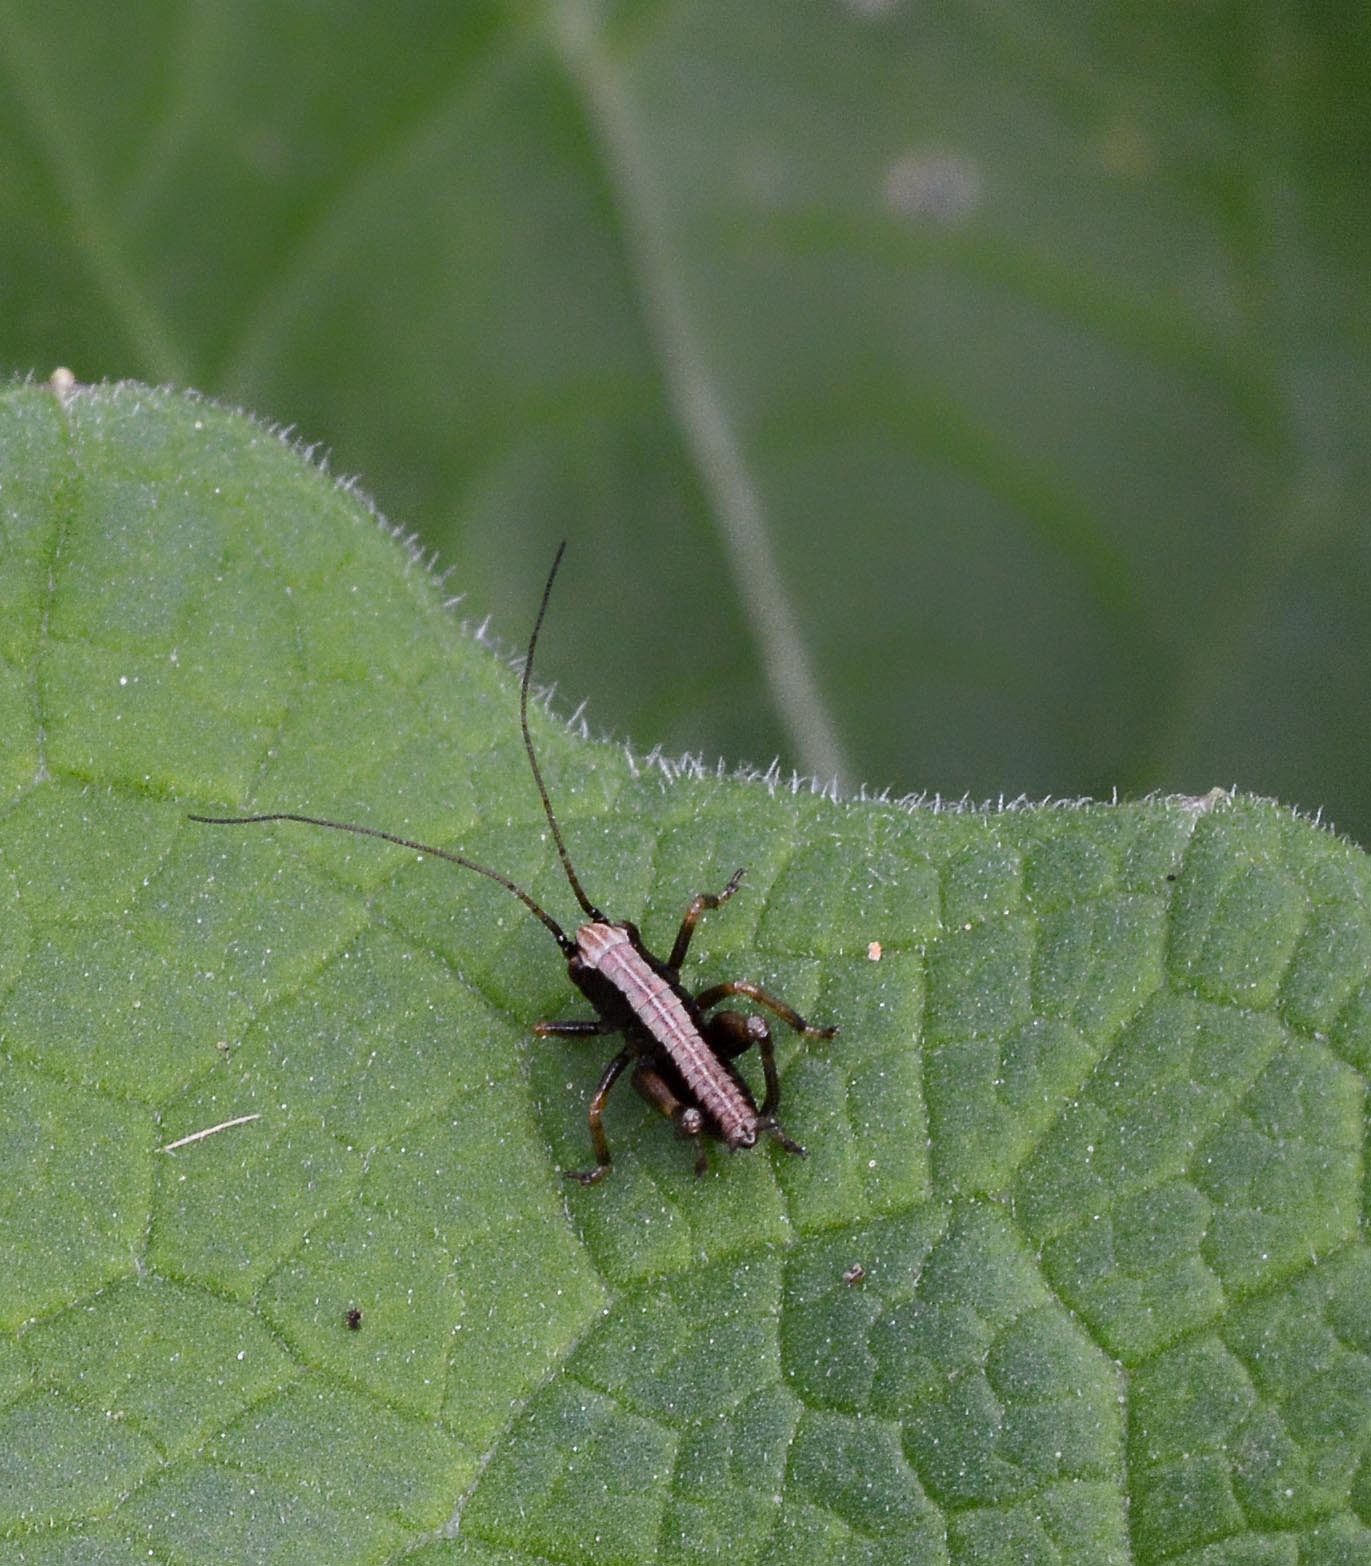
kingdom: Animalia
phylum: Arthropoda
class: Insecta
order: Orthoptera
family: Tettigoniidae
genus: Pholidoptera
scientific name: Pholidoptera griseoaptera
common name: Dark bush-cricket
